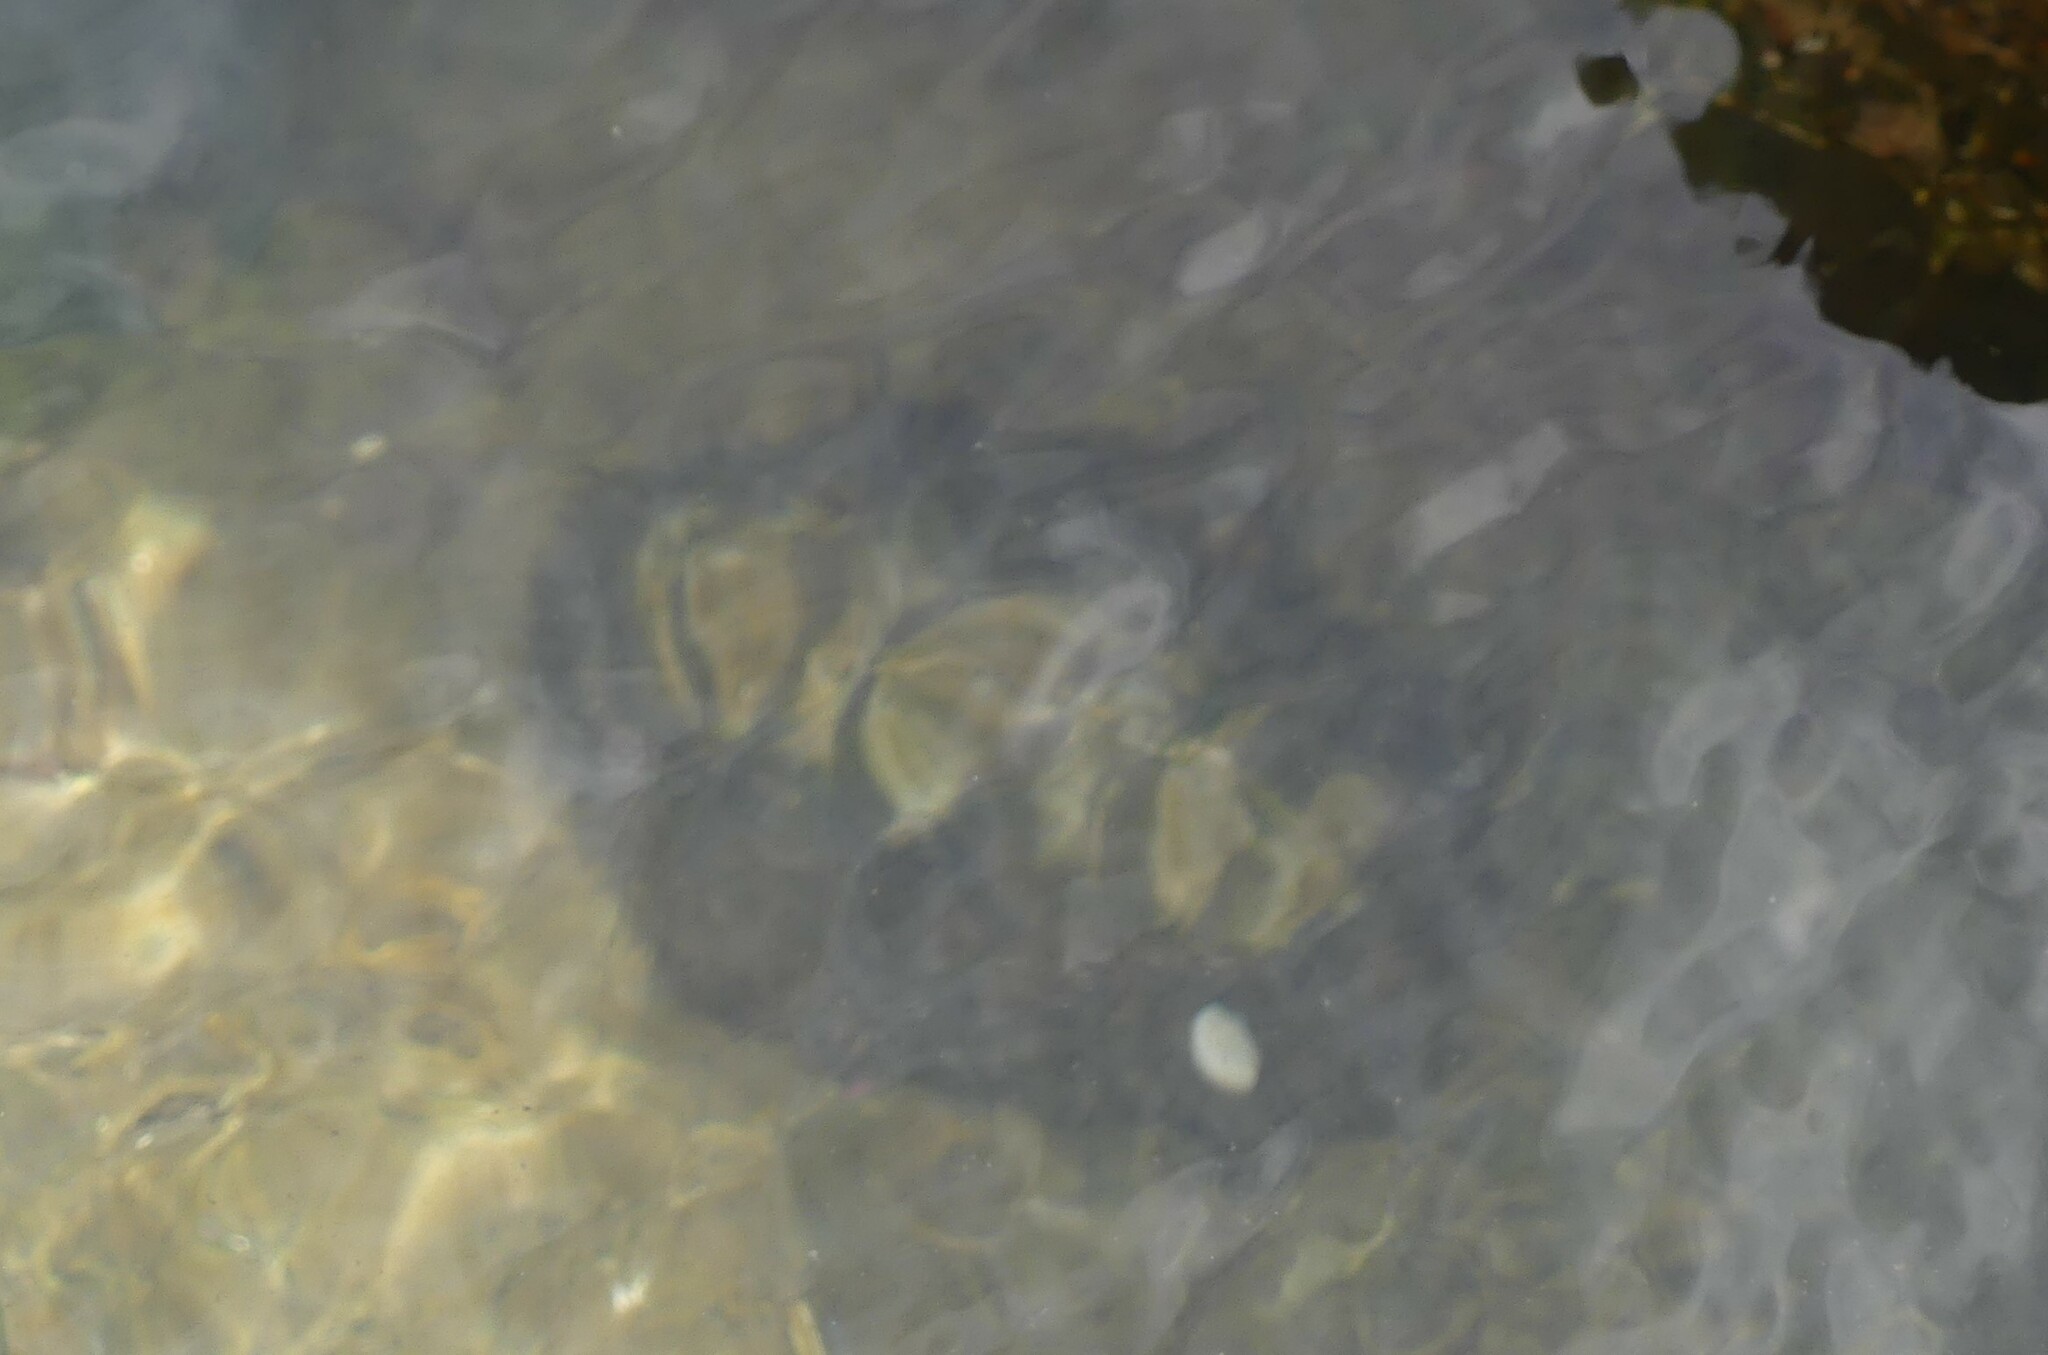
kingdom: Animalia
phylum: Mollusca
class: Polyplacophora
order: Chitonida
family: Mopaliidae
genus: Mopalia
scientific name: Mopalia muscosa
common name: Mossy chiton
